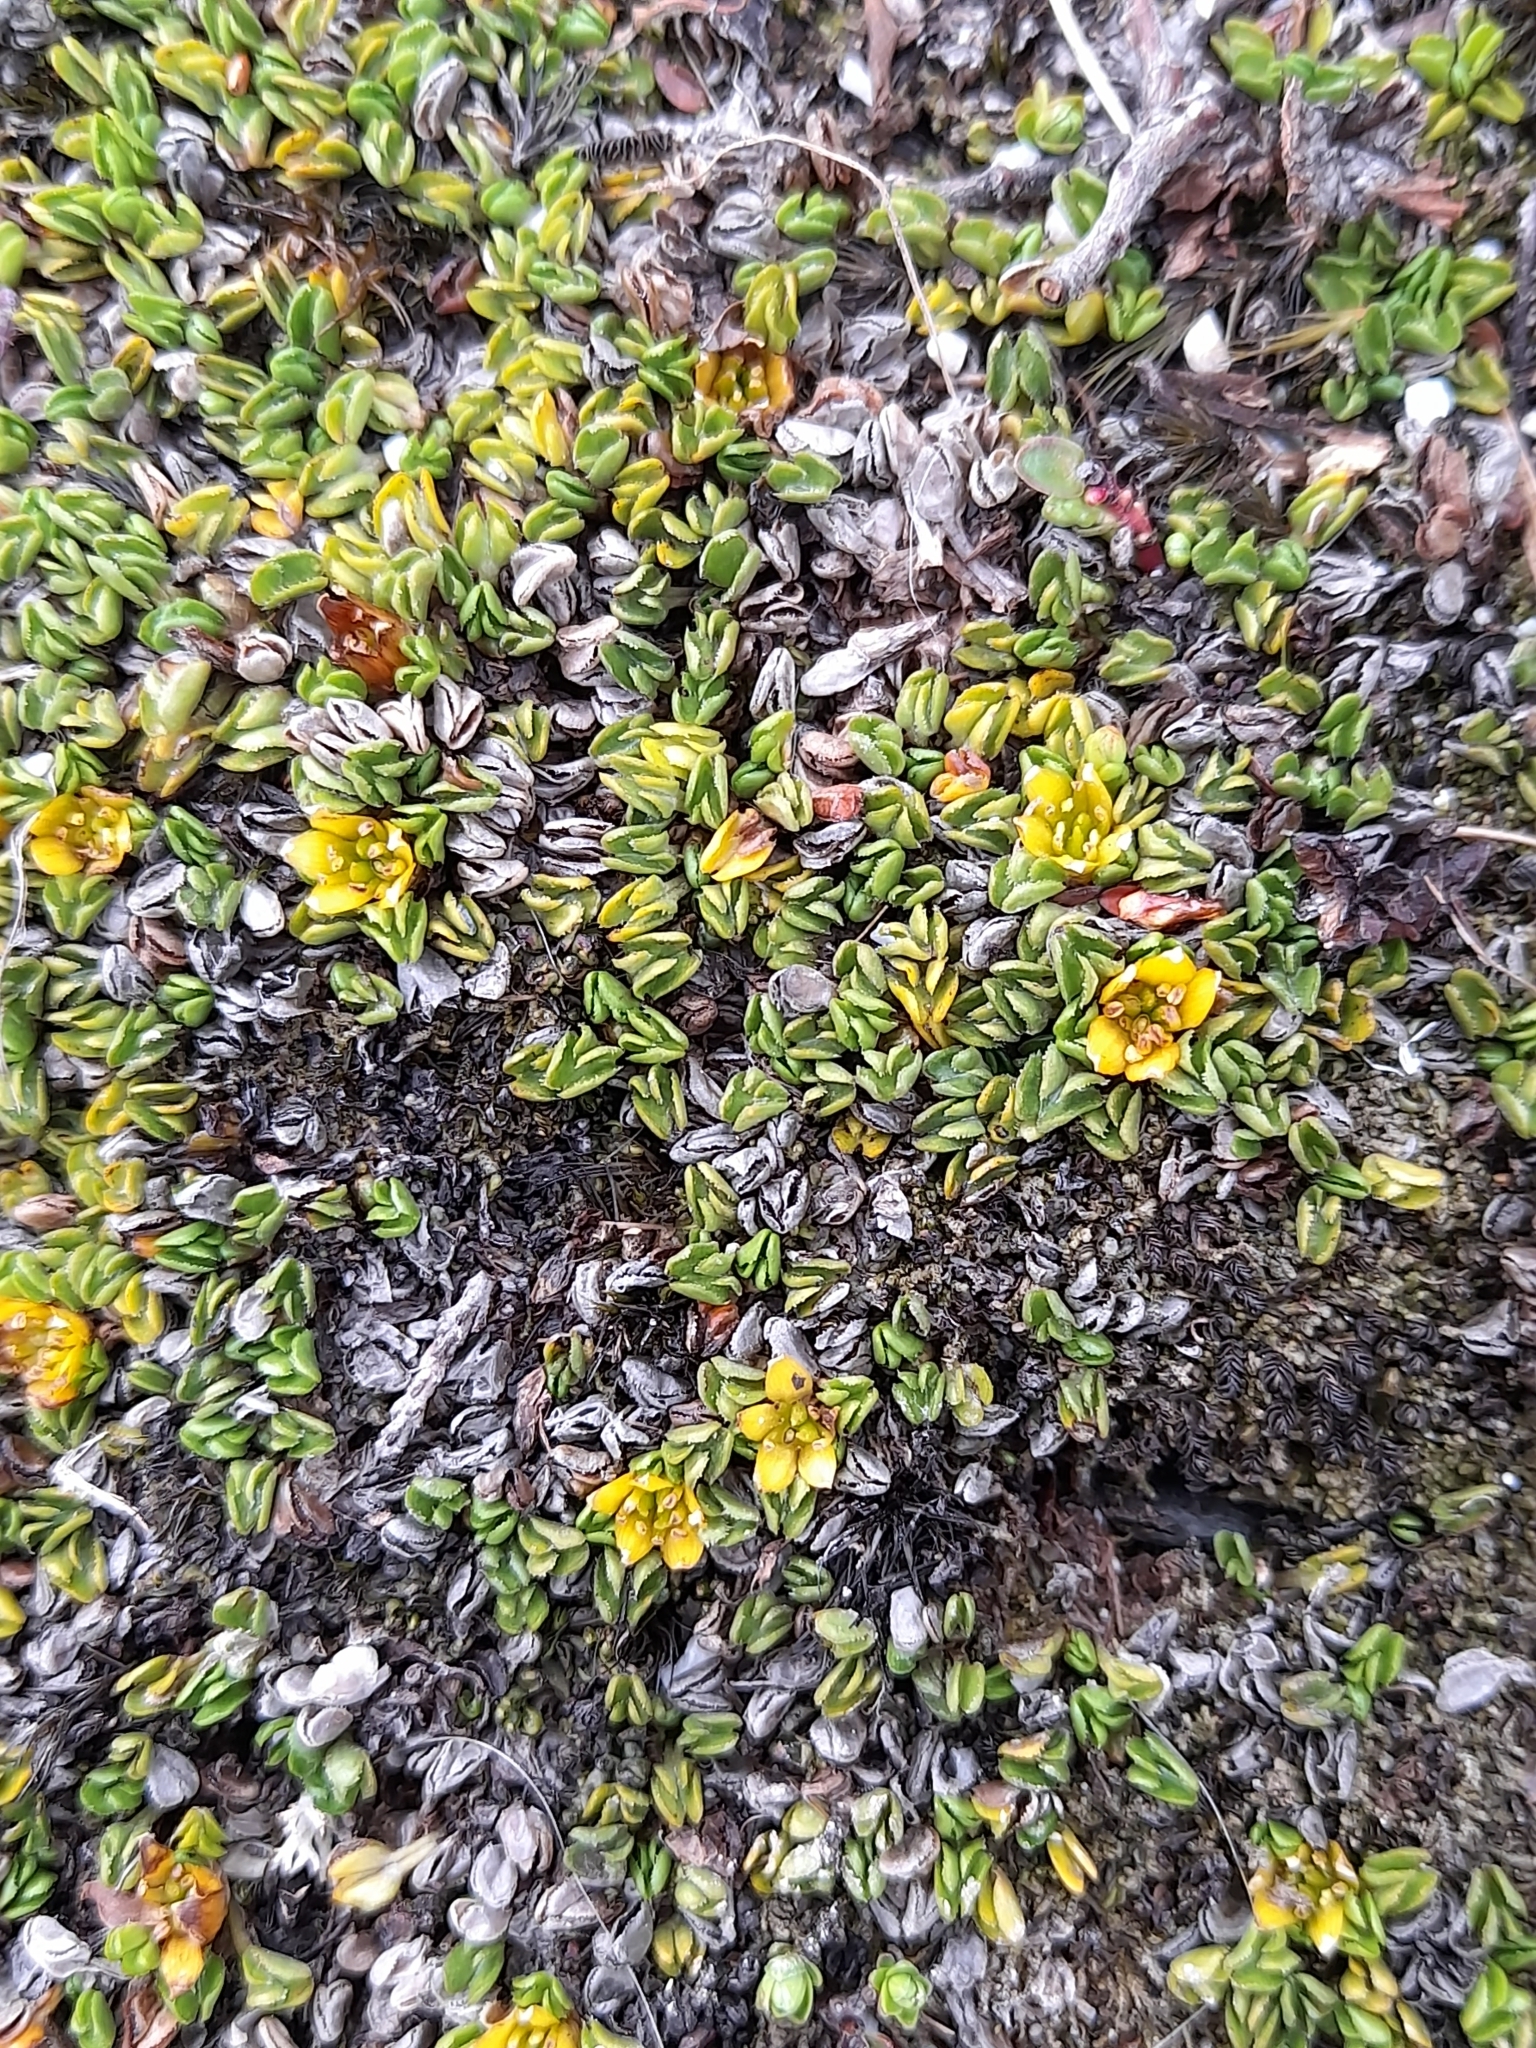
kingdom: Plantae
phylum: Tracheophyta
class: Magnoliopsida
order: Ranunculales
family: Ranunculaceae
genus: Caltha
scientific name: Caltha dionaeifolia
